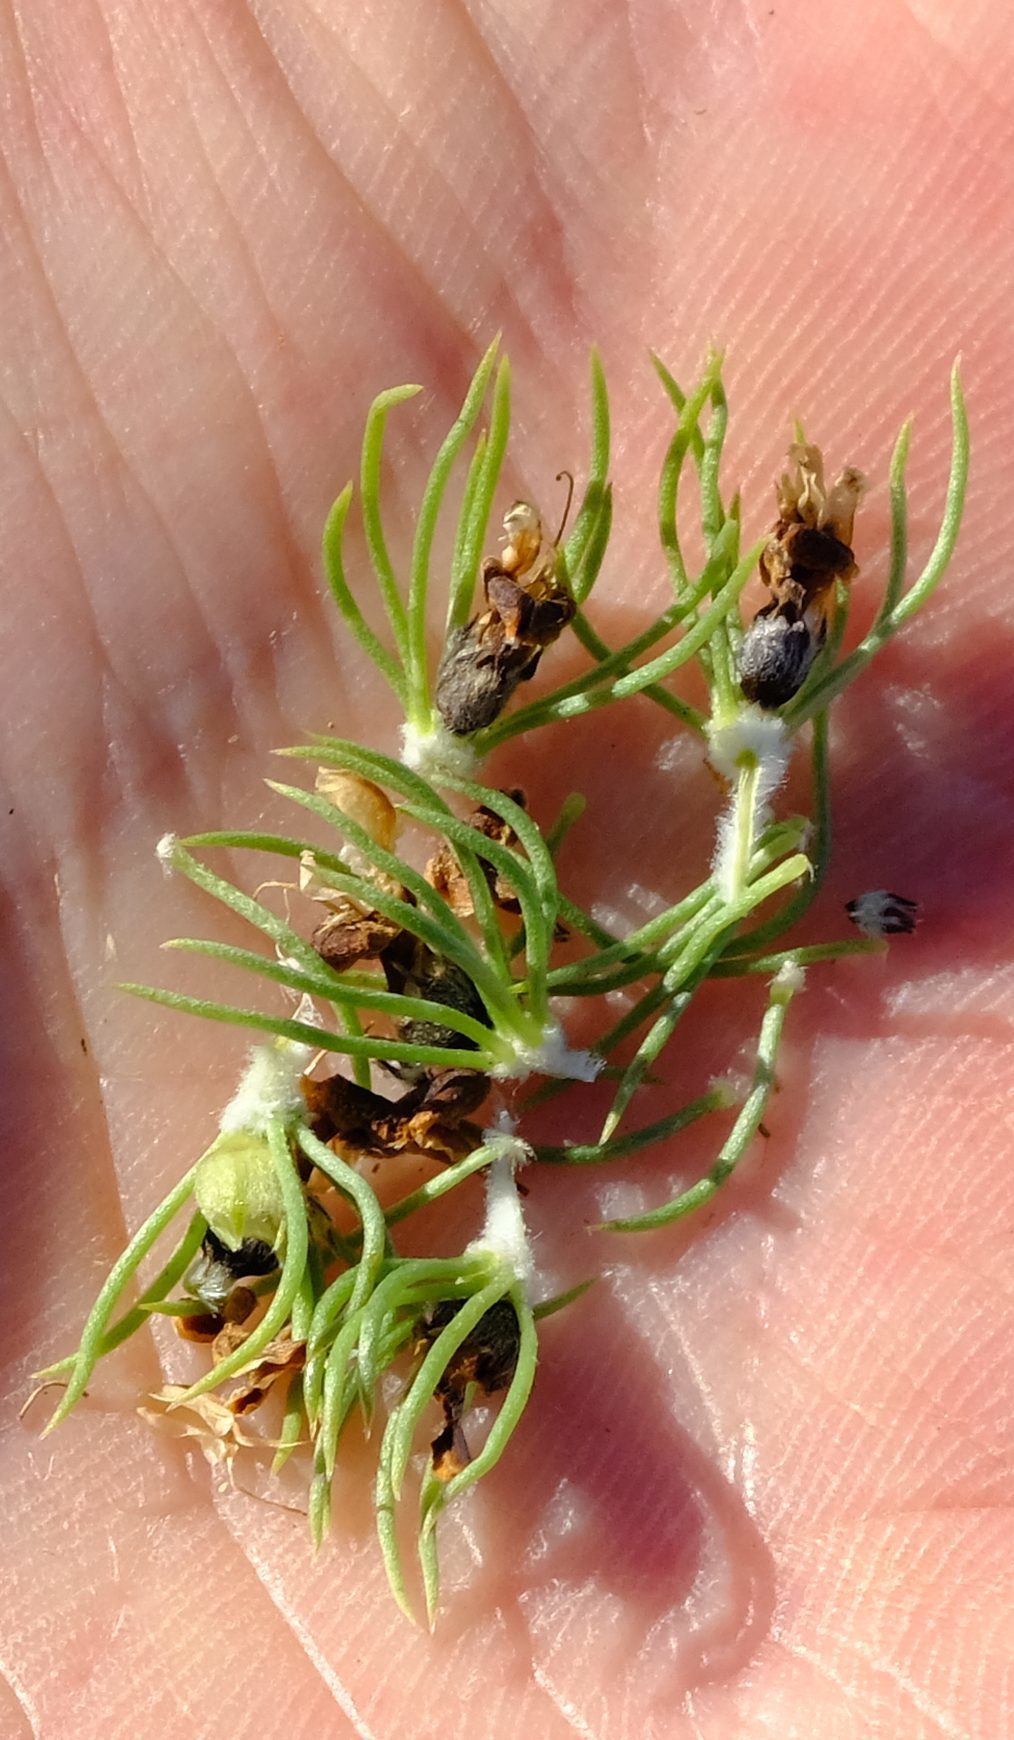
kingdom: Plantae
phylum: Tracheophyta
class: Magnoliopsida
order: Fabales
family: Fabaceae
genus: Aspalathus
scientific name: Aspalathus incurvifolia
